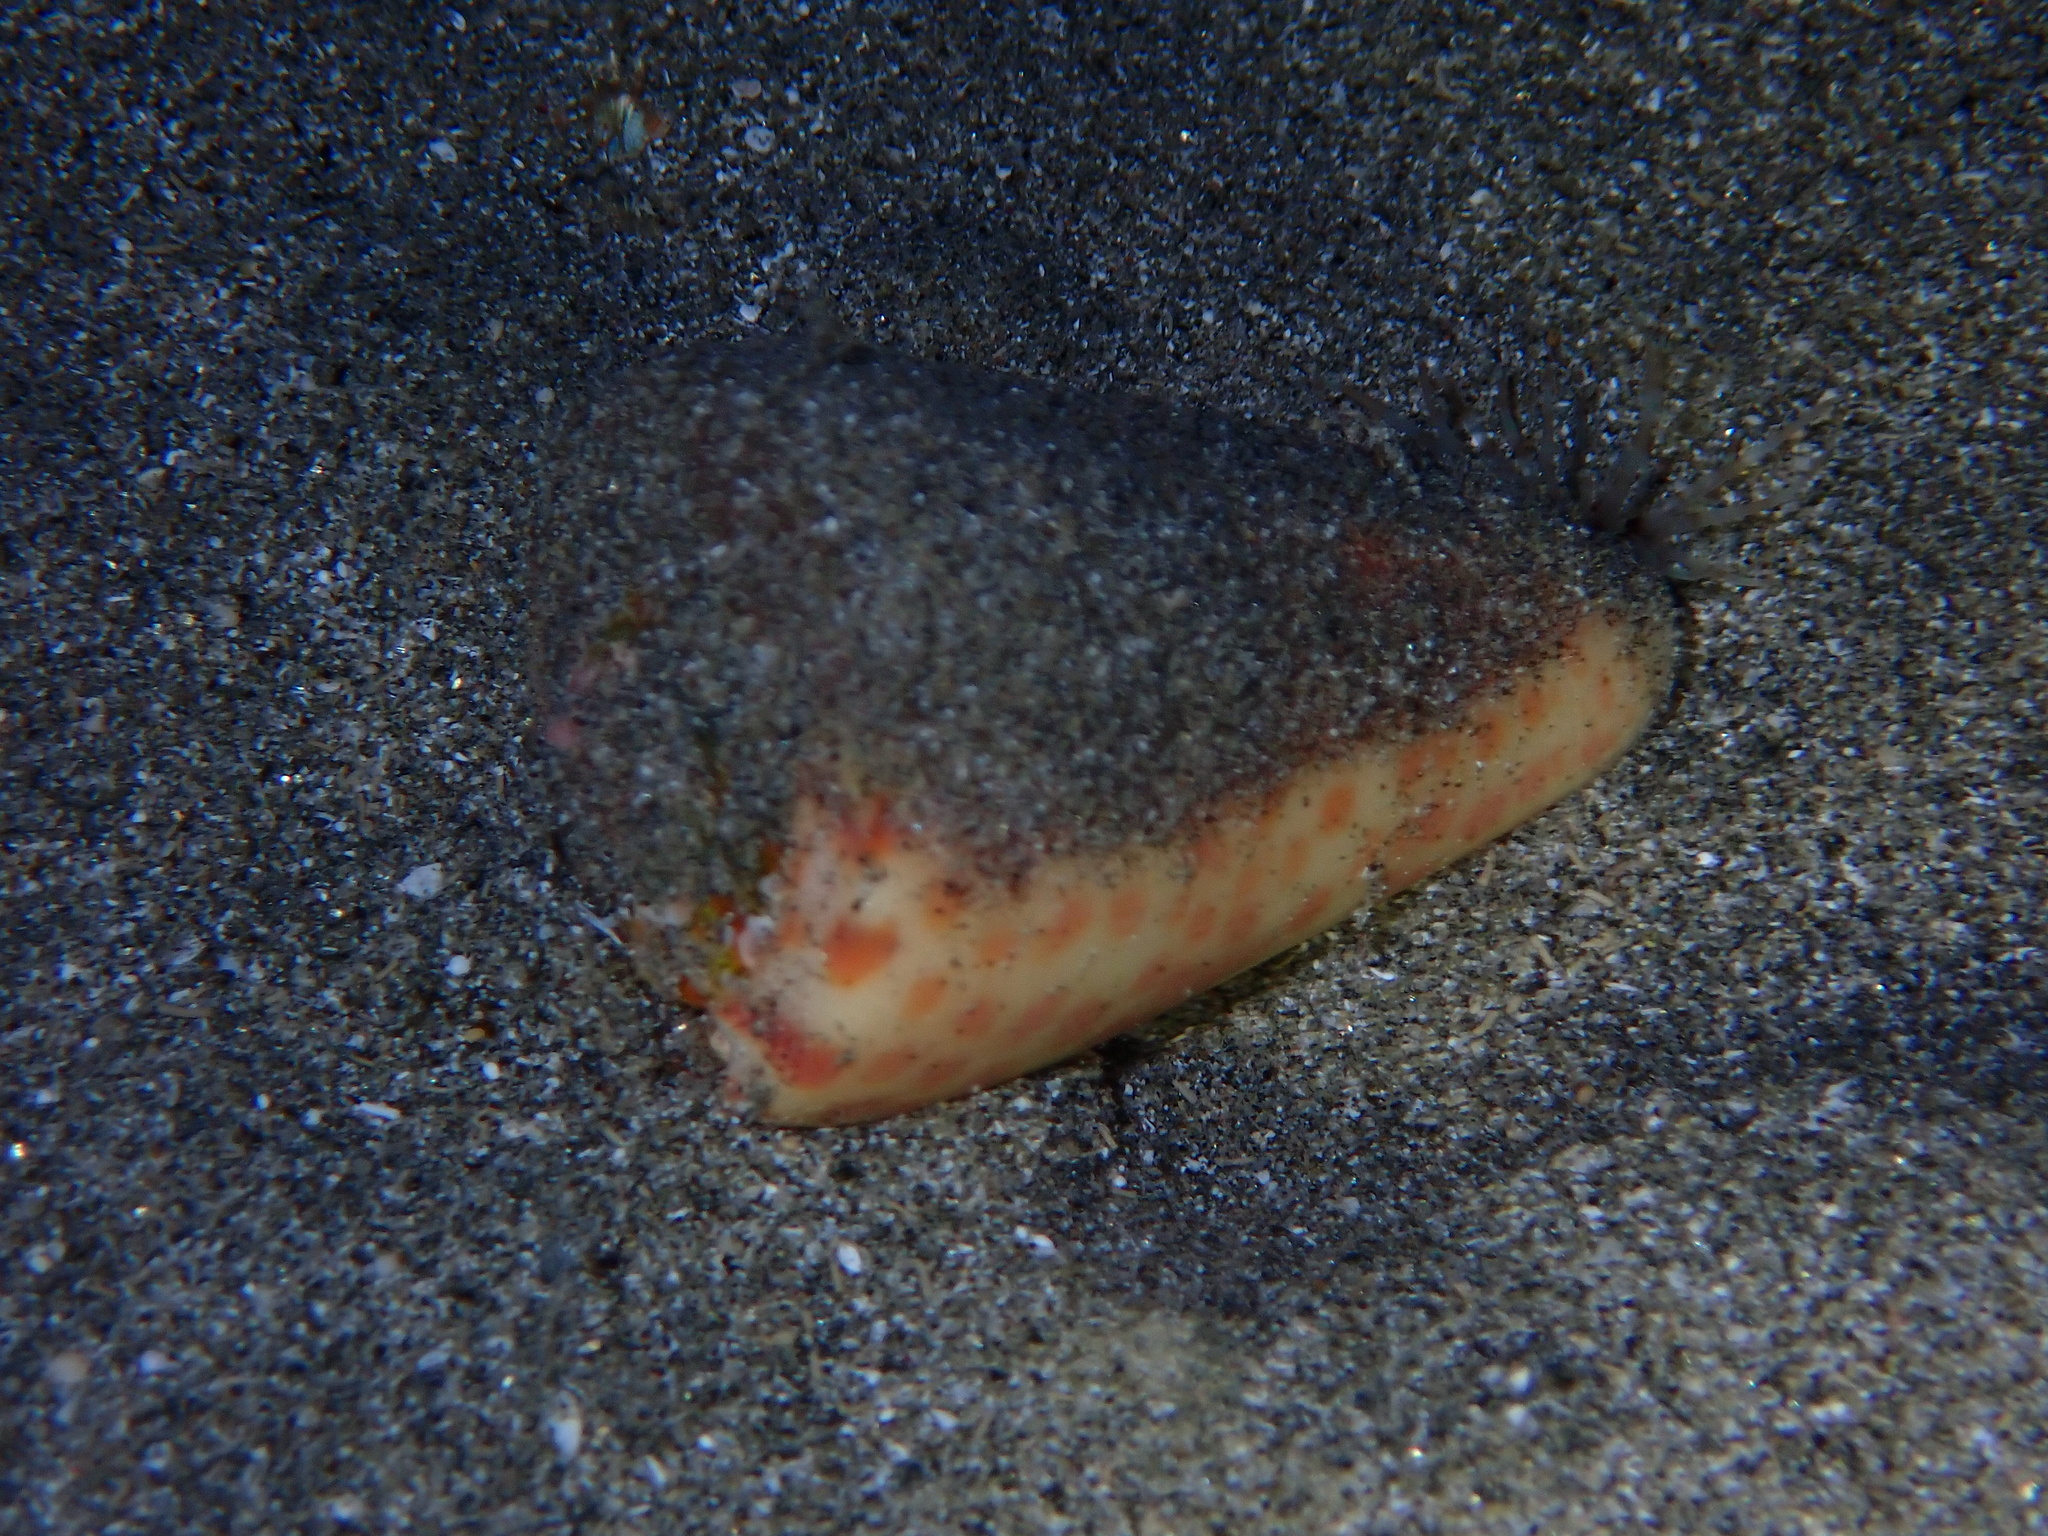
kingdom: Animalia
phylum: Mollusca
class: Gastropoda
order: Neogastropoda
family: Conidae
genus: Conus
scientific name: Conus tessulatus
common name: Tessellate cone
